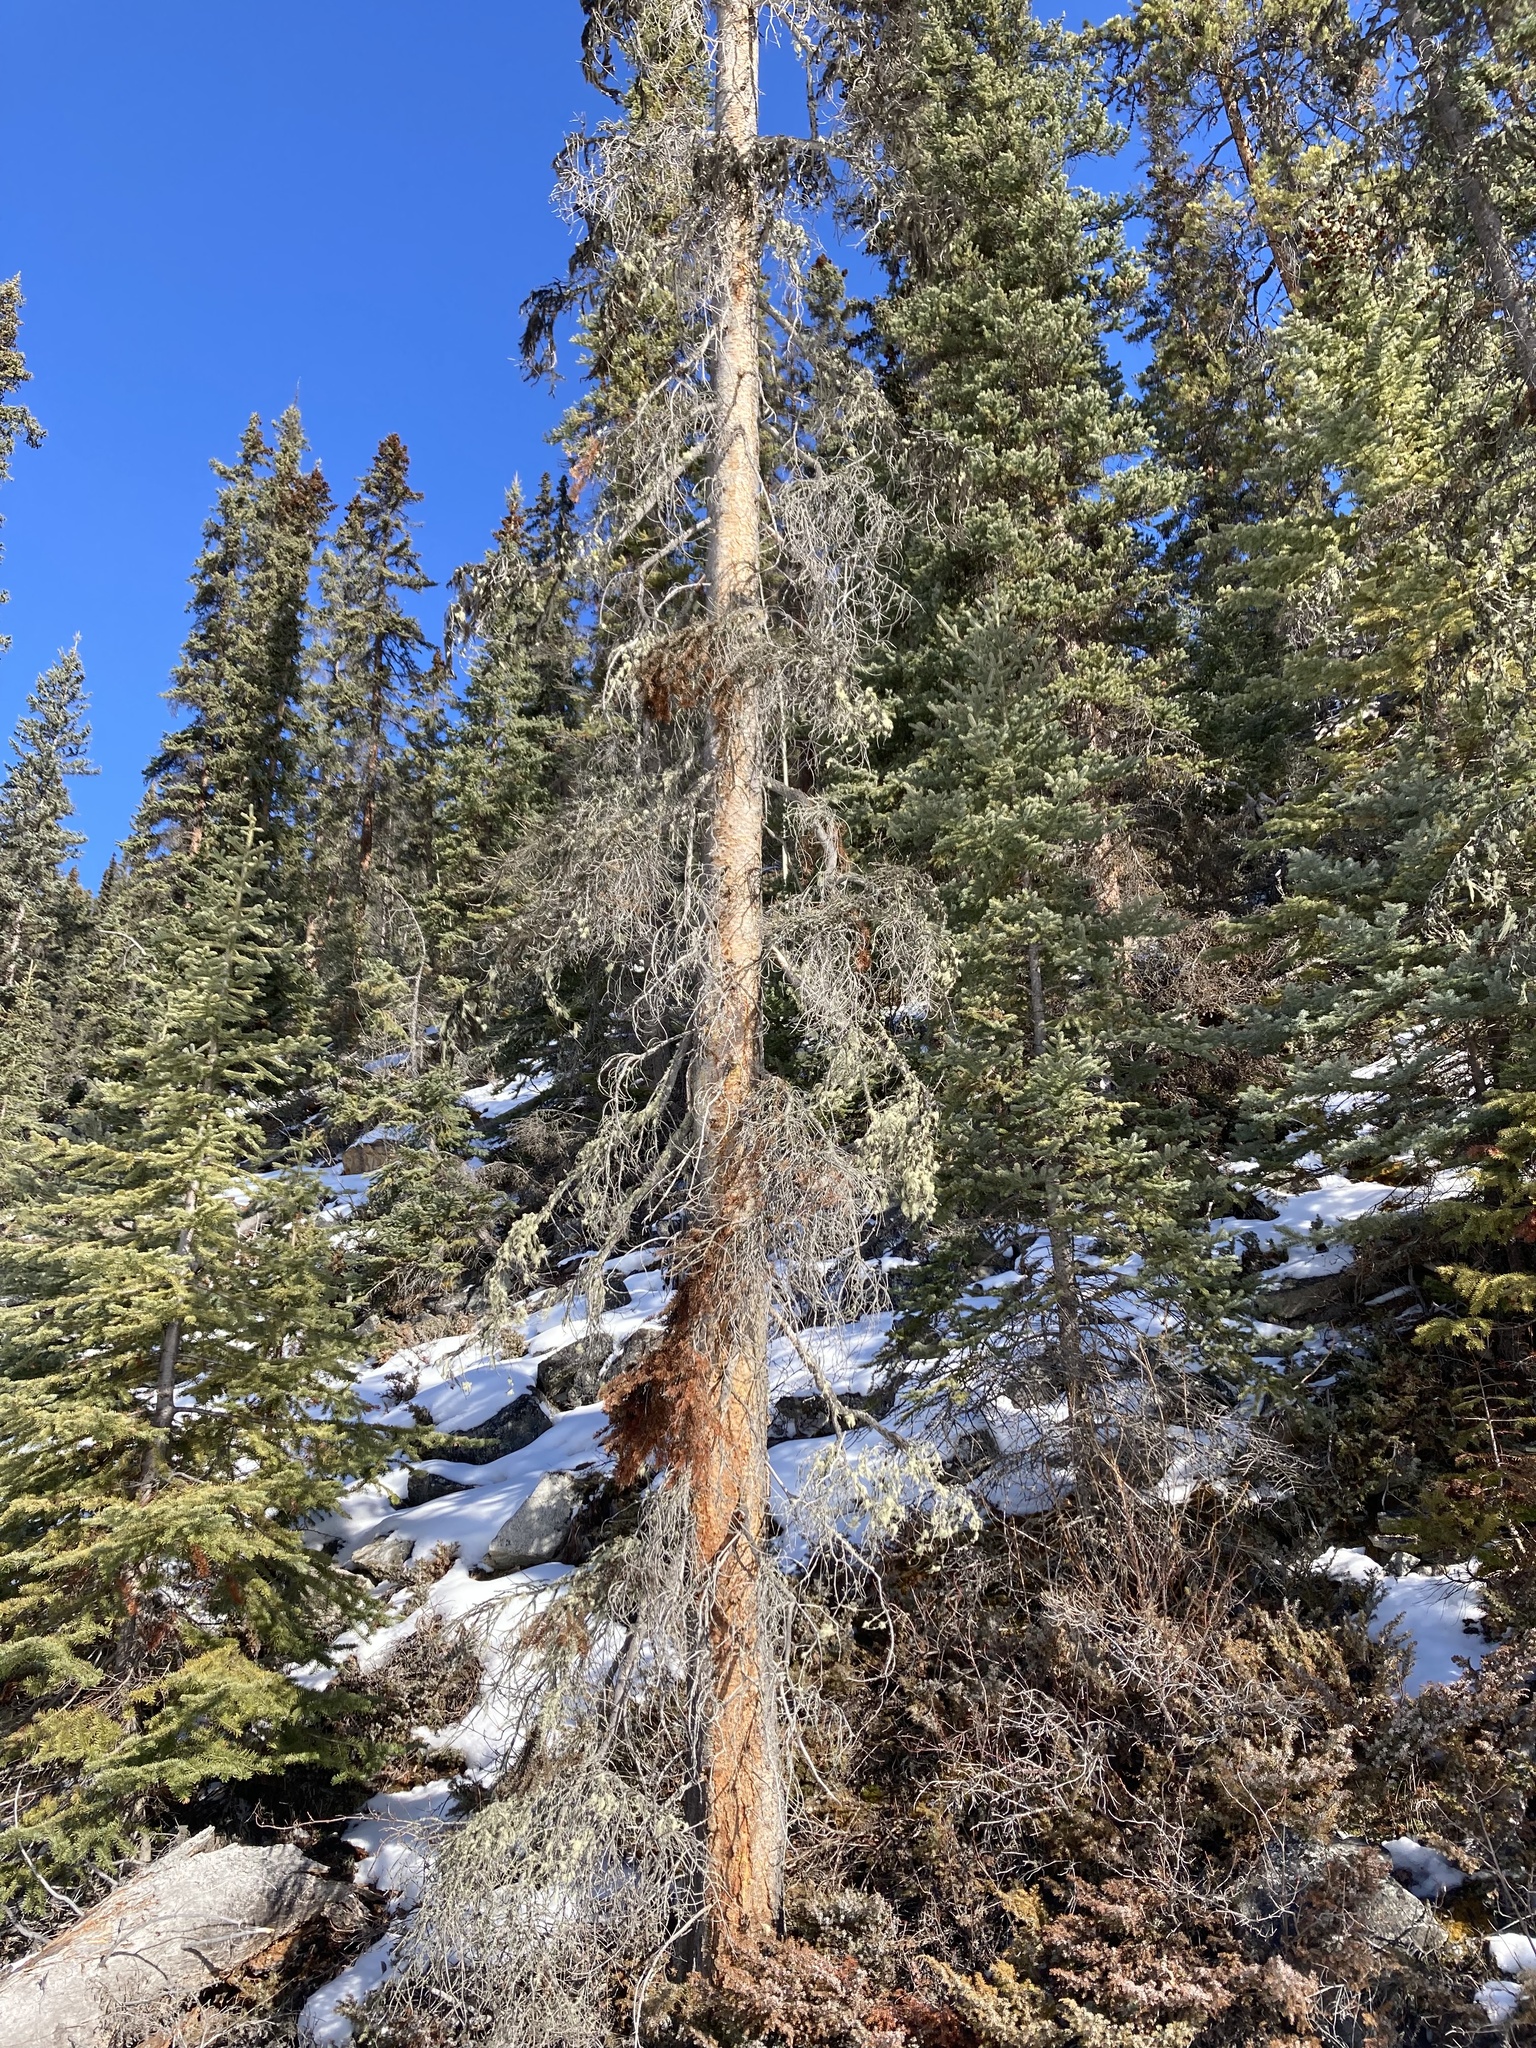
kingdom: Plantae
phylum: Tracheophyta
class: Pinopsida
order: Pinales
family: Pinaceae
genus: Abies
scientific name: Abies lasiocarpa
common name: Subalpine fir
